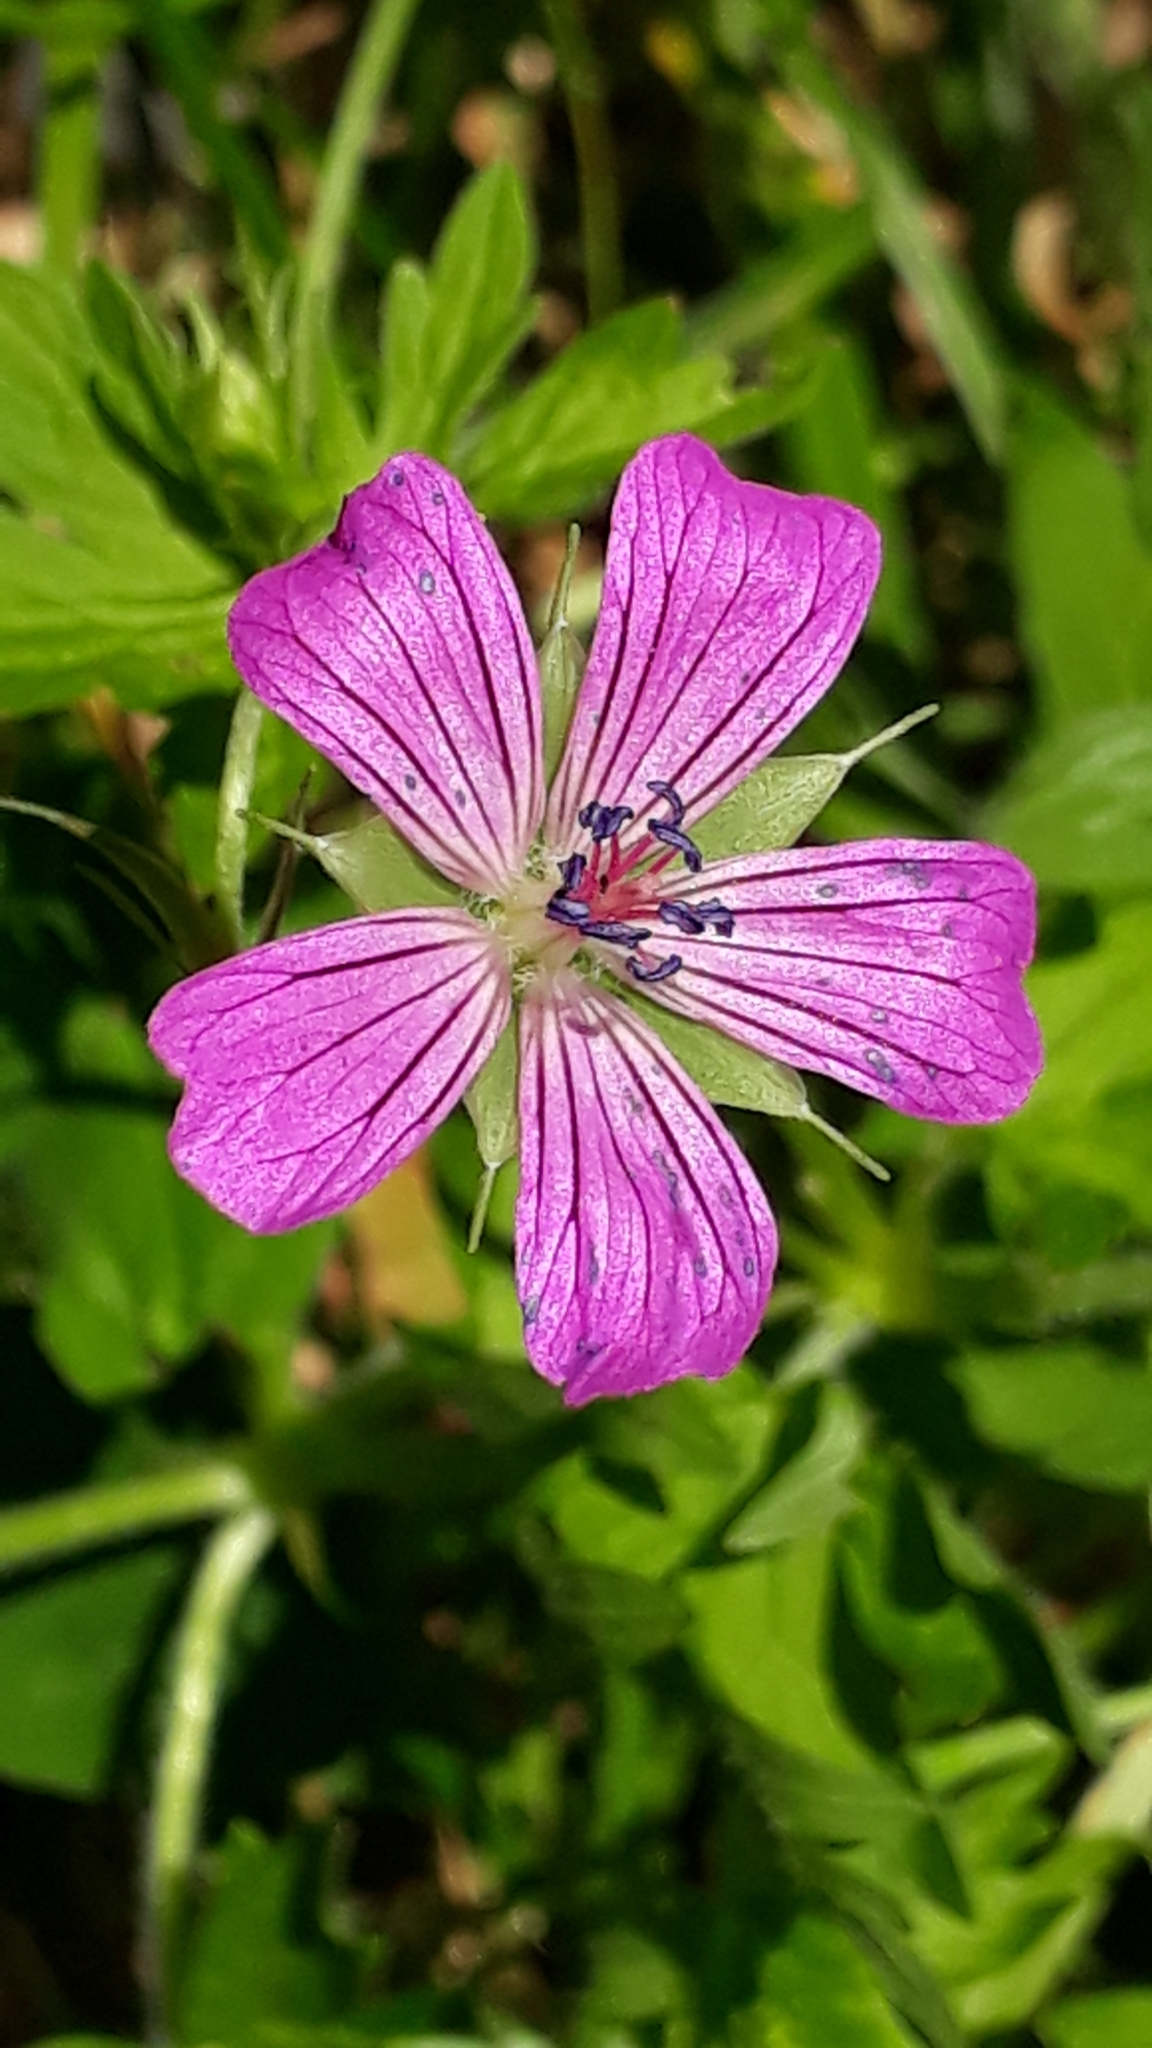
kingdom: Plantae
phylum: Tracheophyta
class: Magnoliopsida
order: Geraniales
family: Geraniaceae
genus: Geranium
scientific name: Geranium palustre
